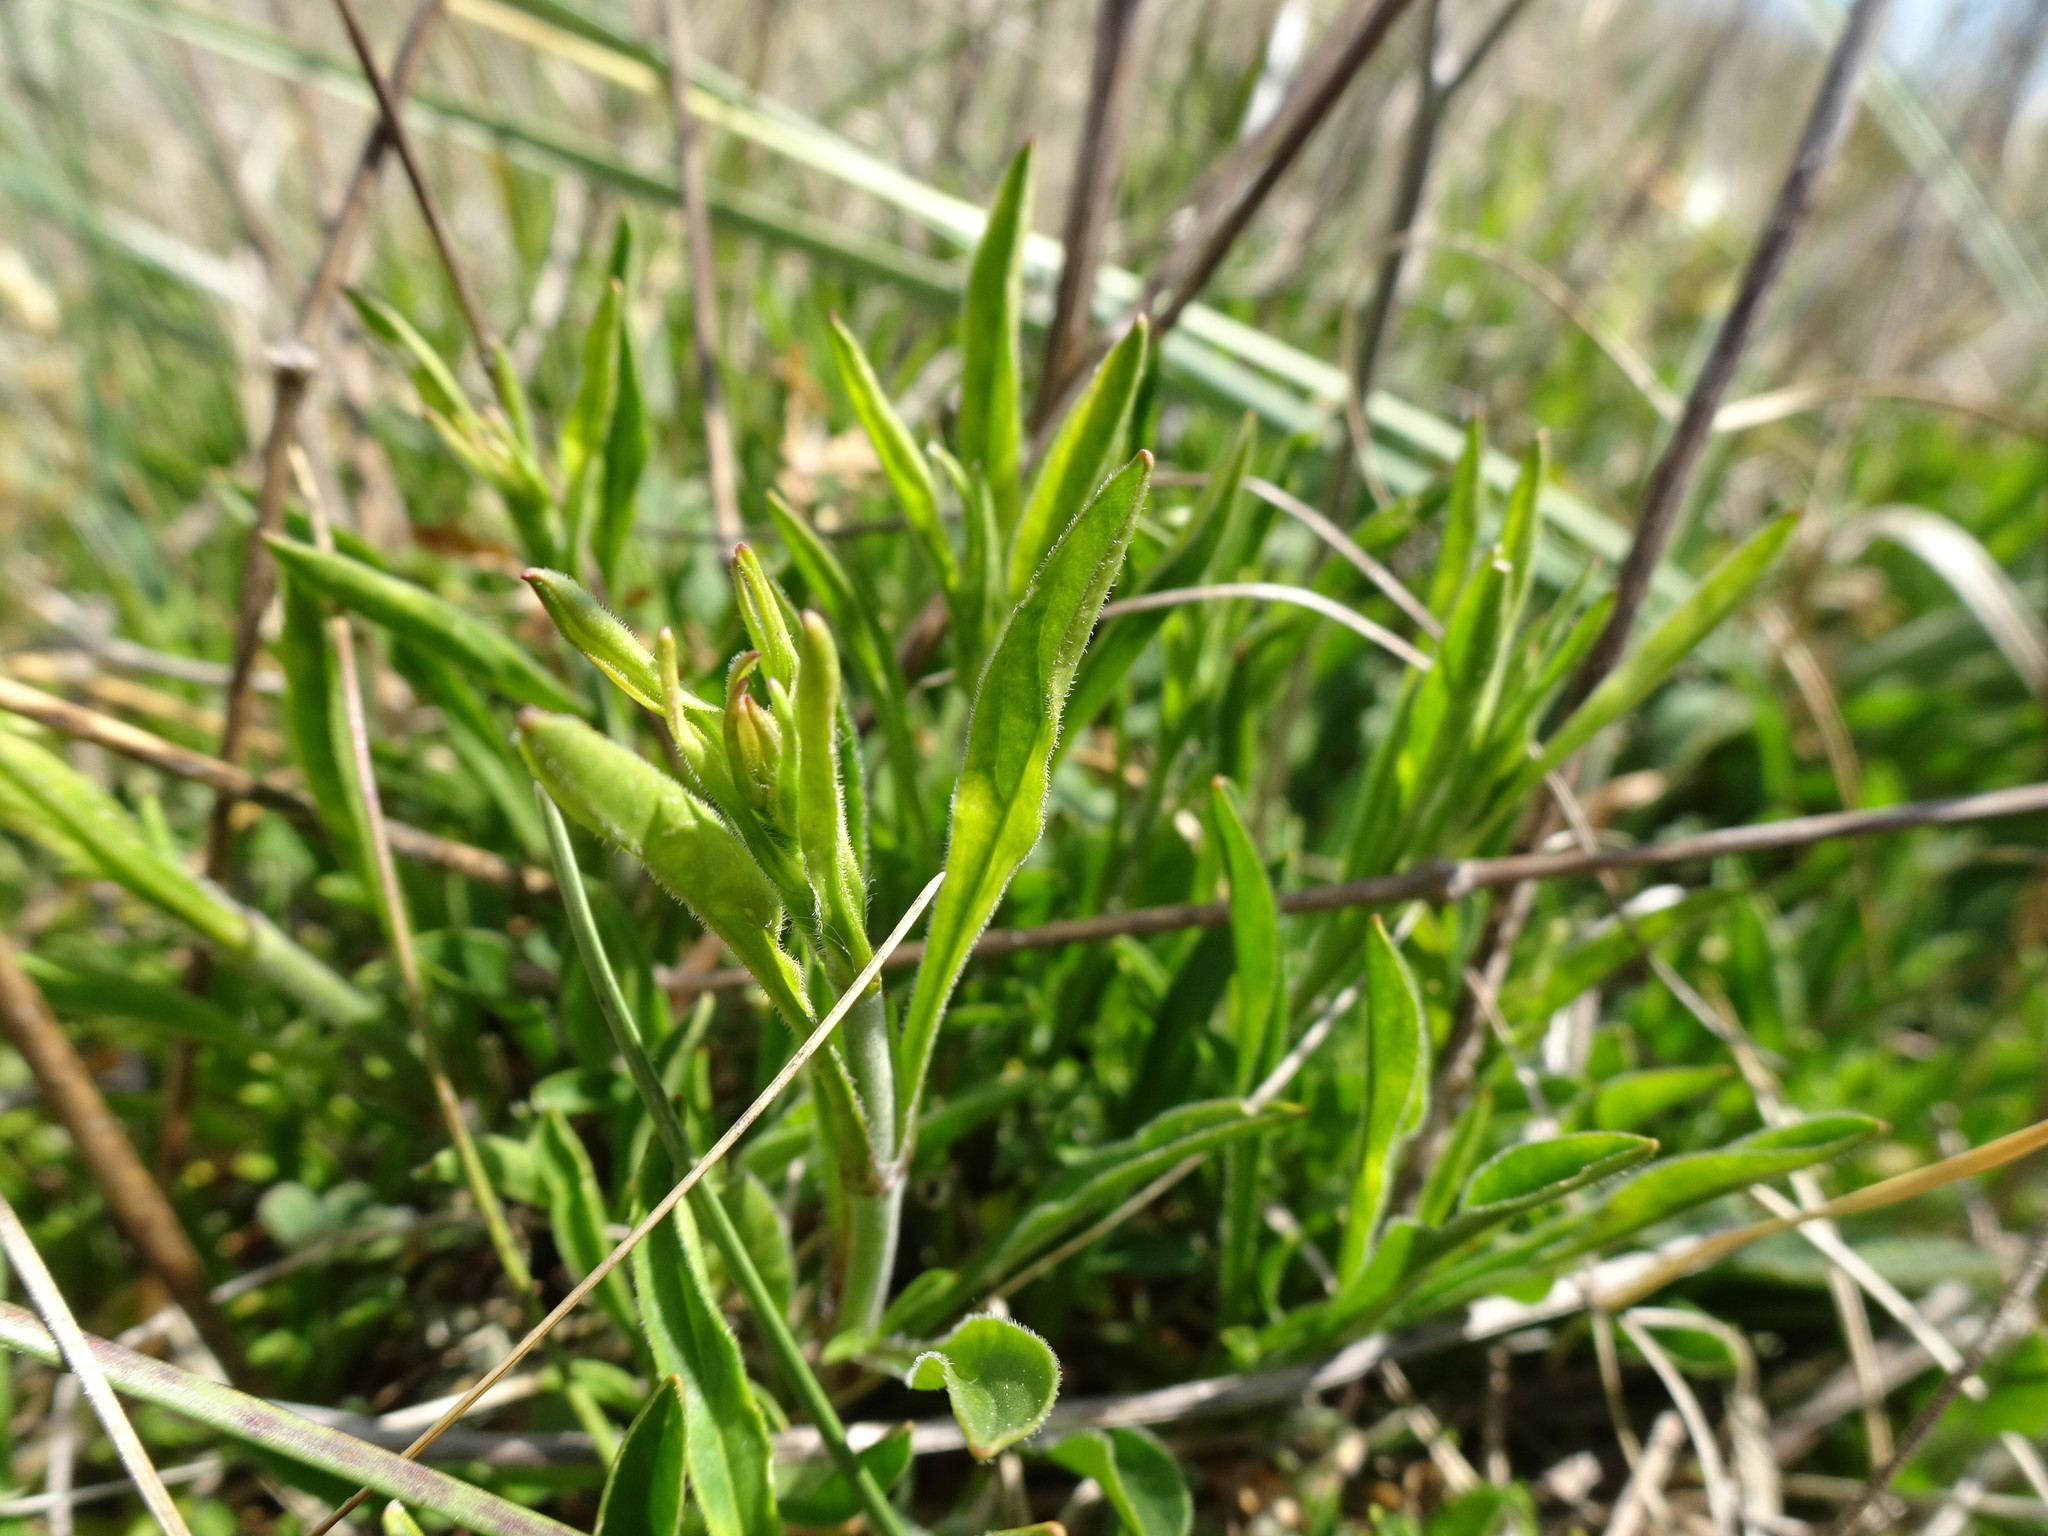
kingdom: Plantae
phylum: Tracheophyta
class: Magnoliopsida
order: Caryophyllales
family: Caryophyllaceae
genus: Silene
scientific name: Silene nutans
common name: Nottingham catchfly
